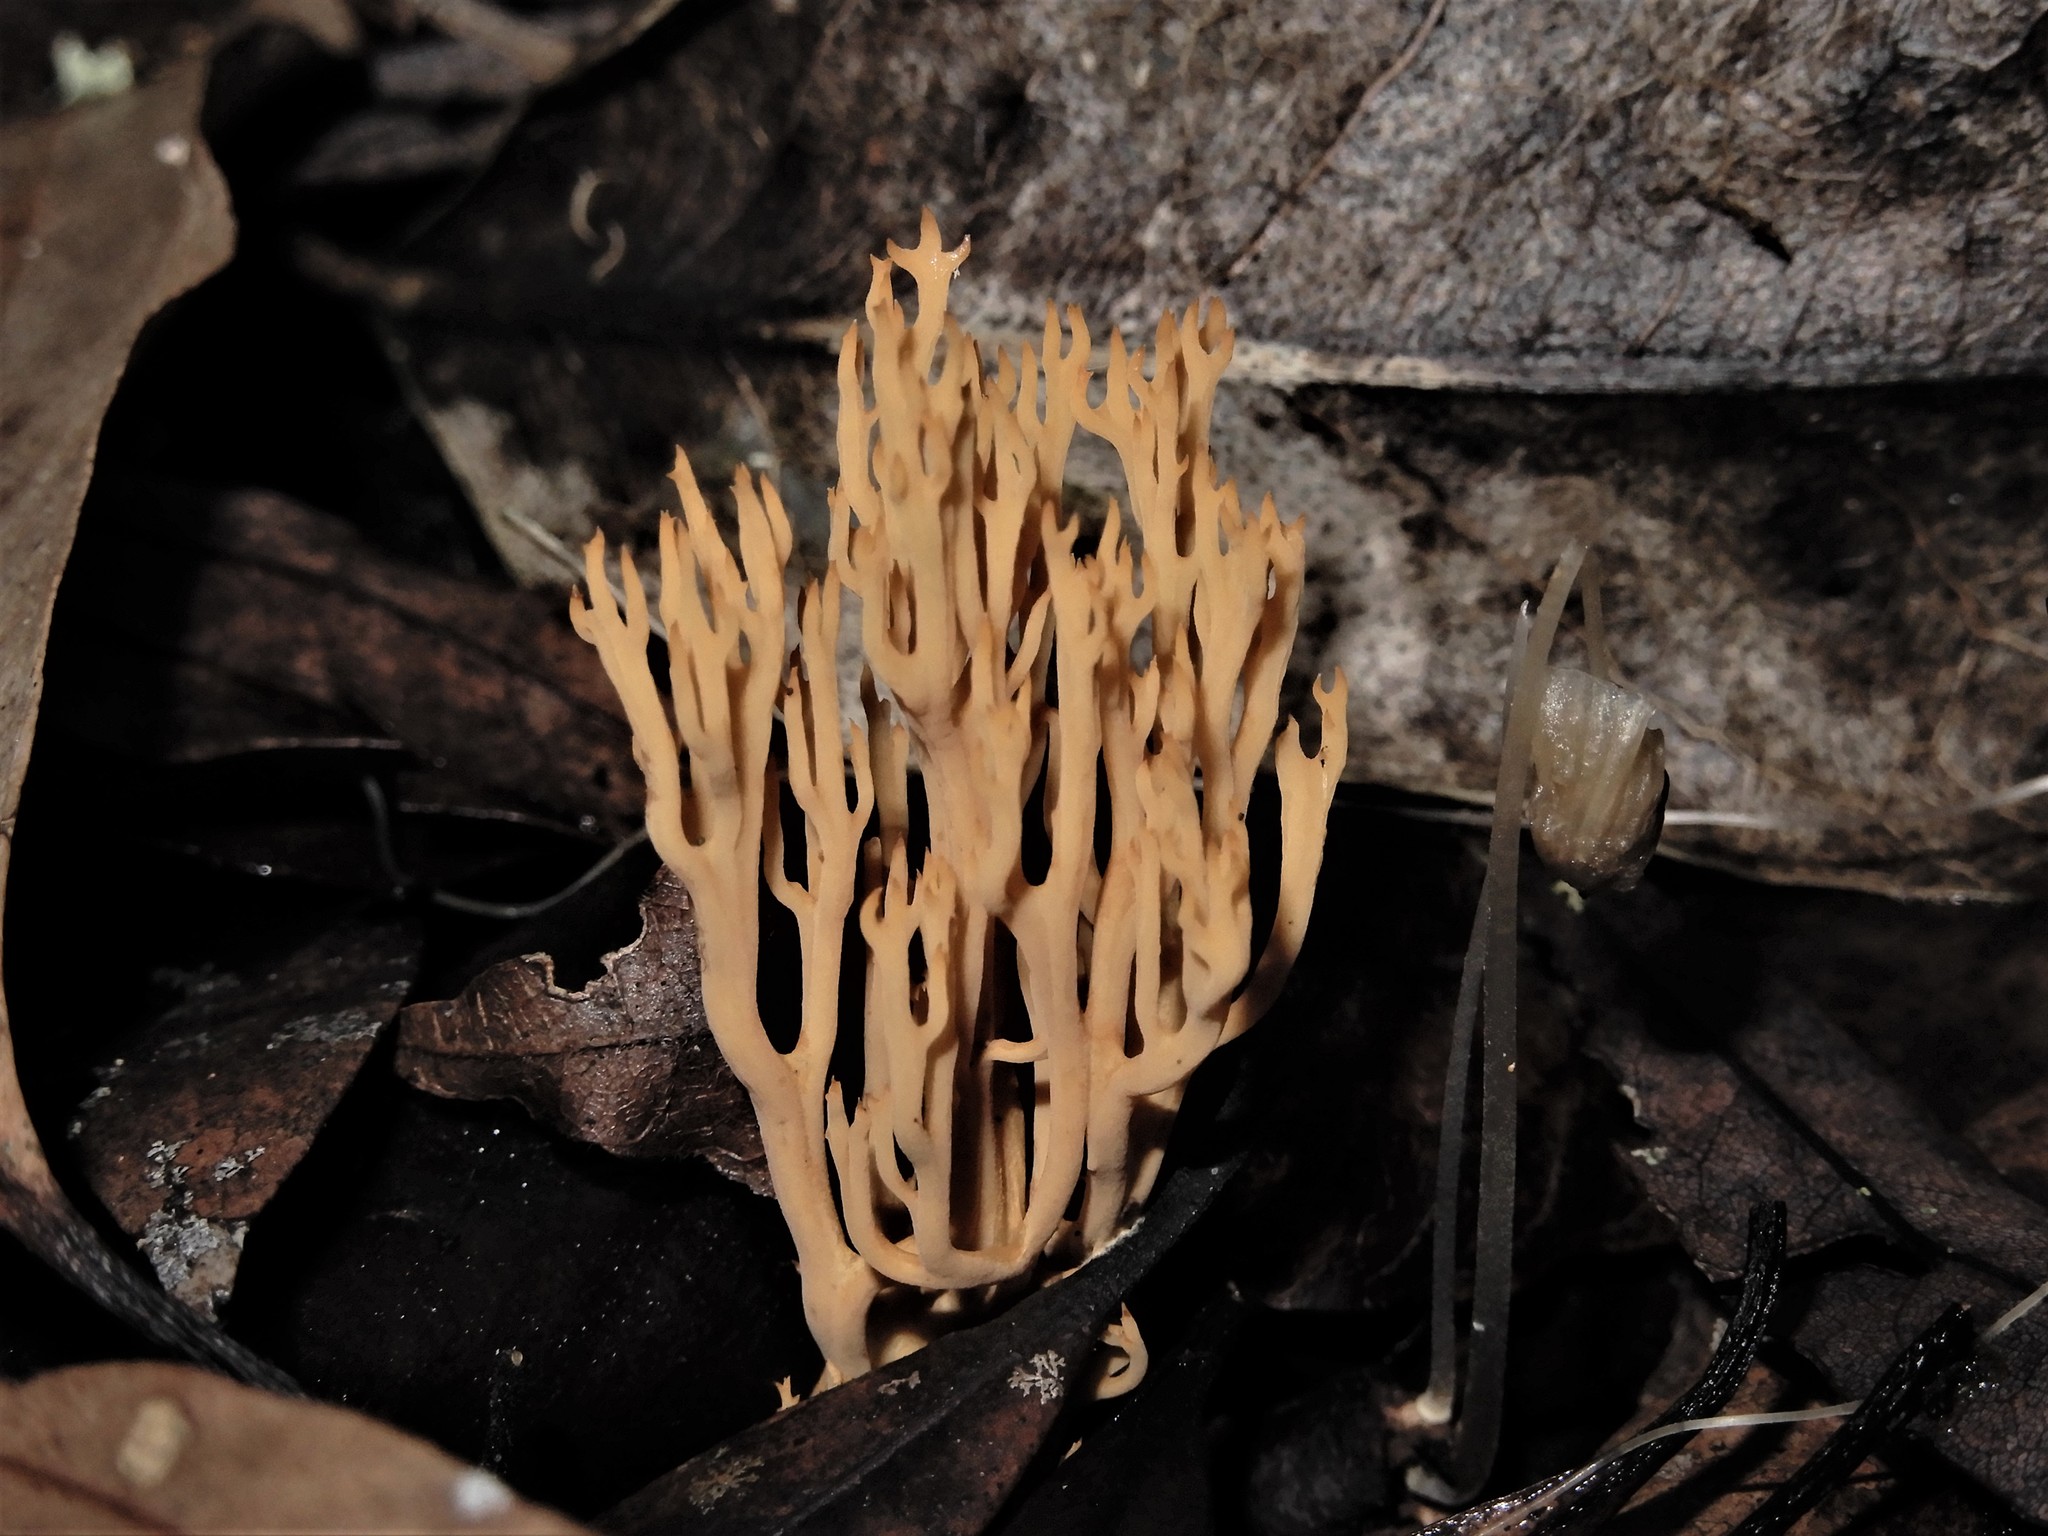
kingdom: Fungi
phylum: Basidiomycota
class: Agaricomycetes
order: Gomphales
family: Gomphaceae
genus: Ramaria
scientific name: Ramaria ambigua
